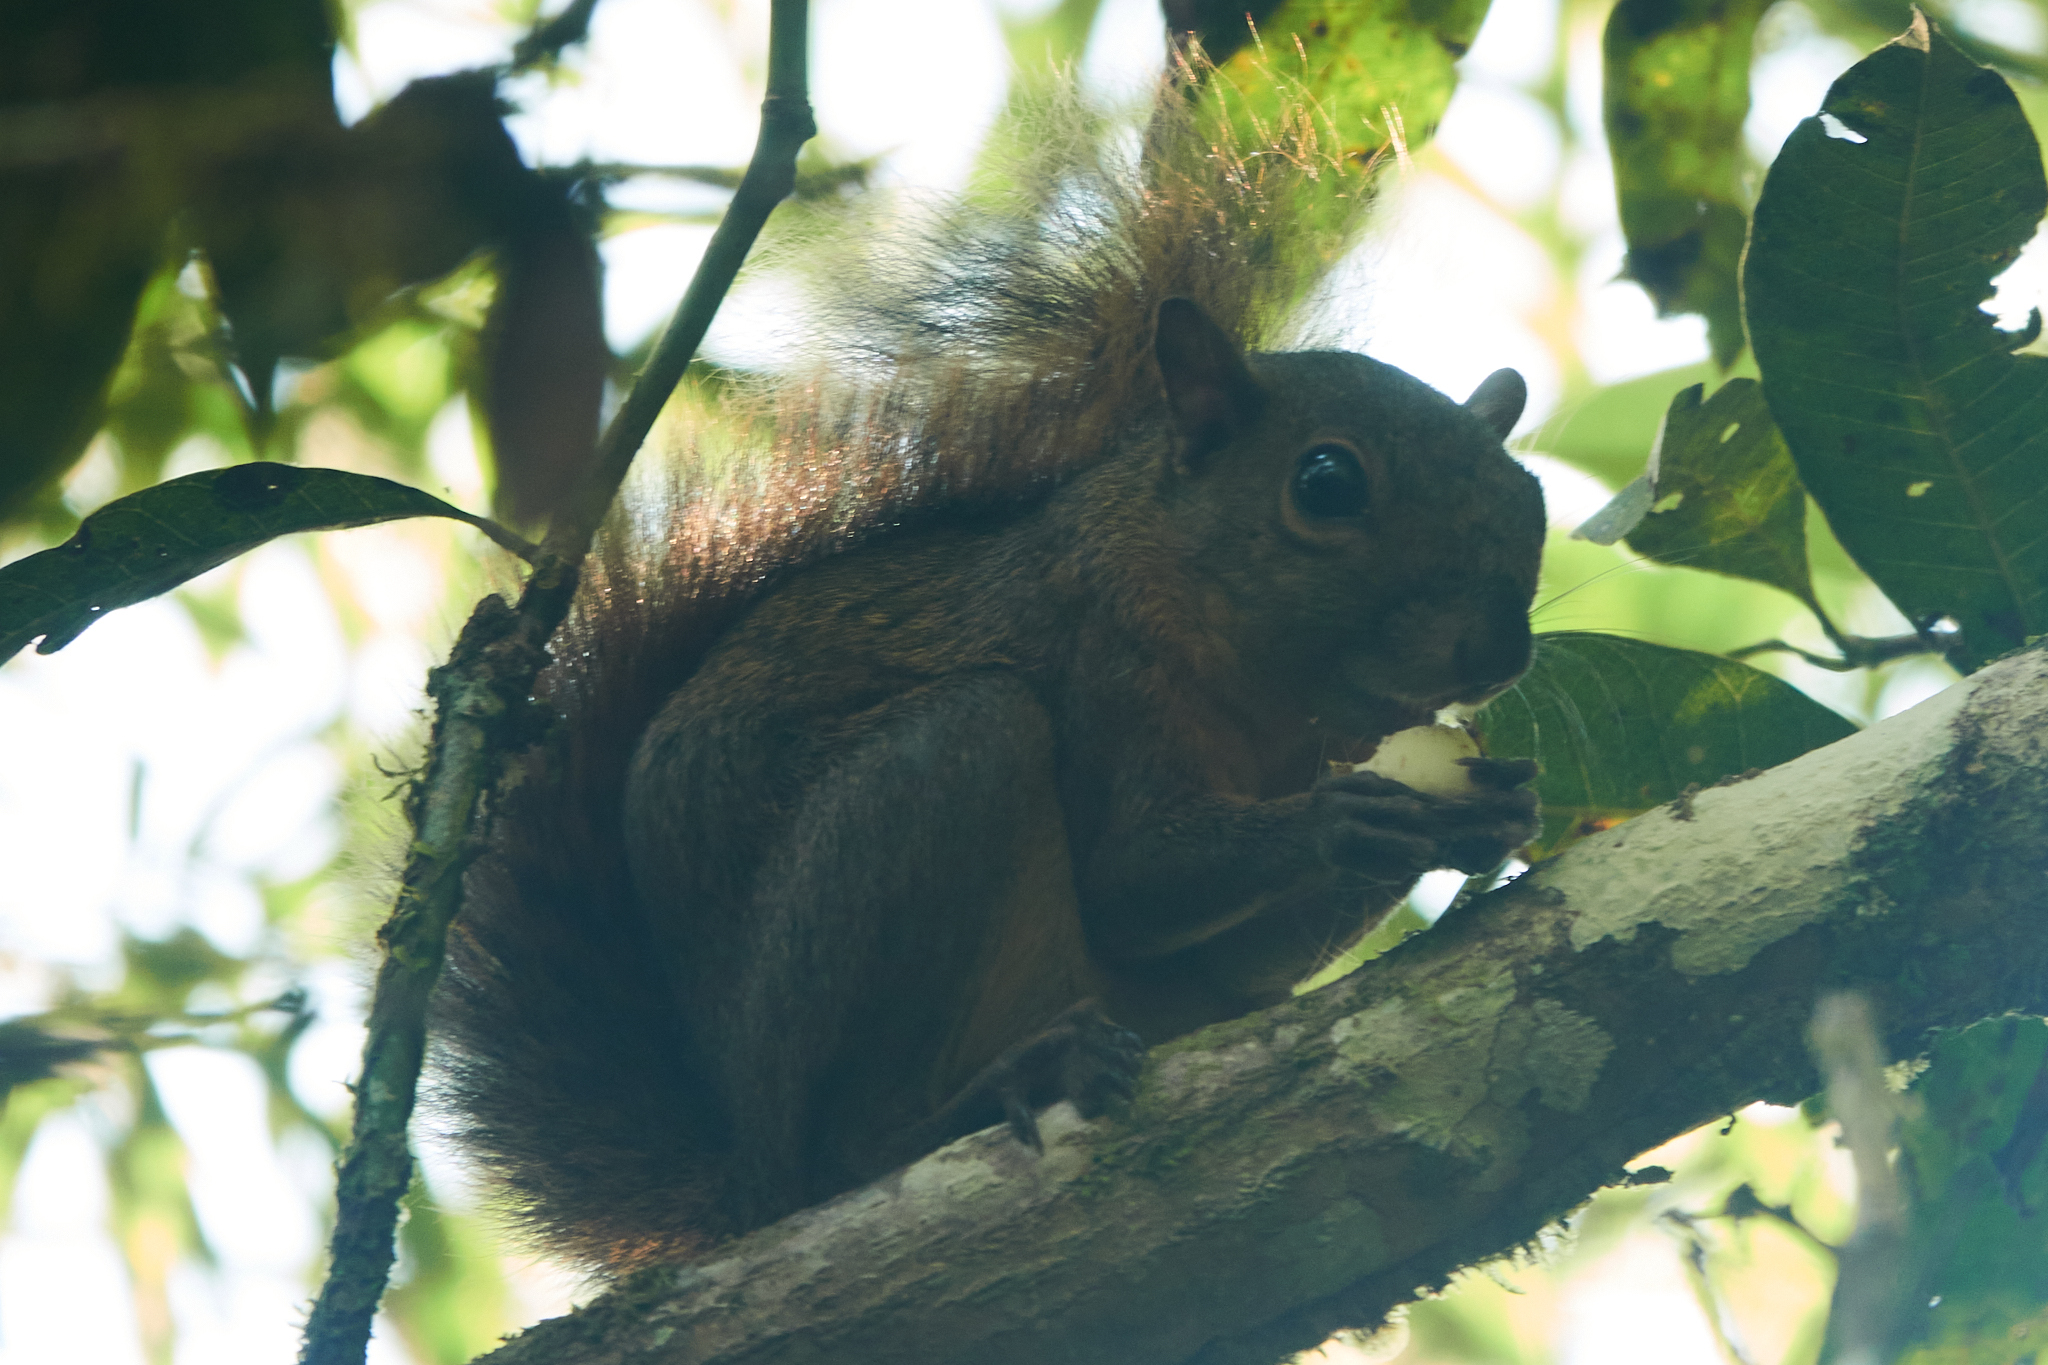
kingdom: Animalia
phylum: Chordata
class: Mammalia
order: Rodentia
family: Sciuridae
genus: Sciurus
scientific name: Sciurus granatensis
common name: Red-tailed squirrel
